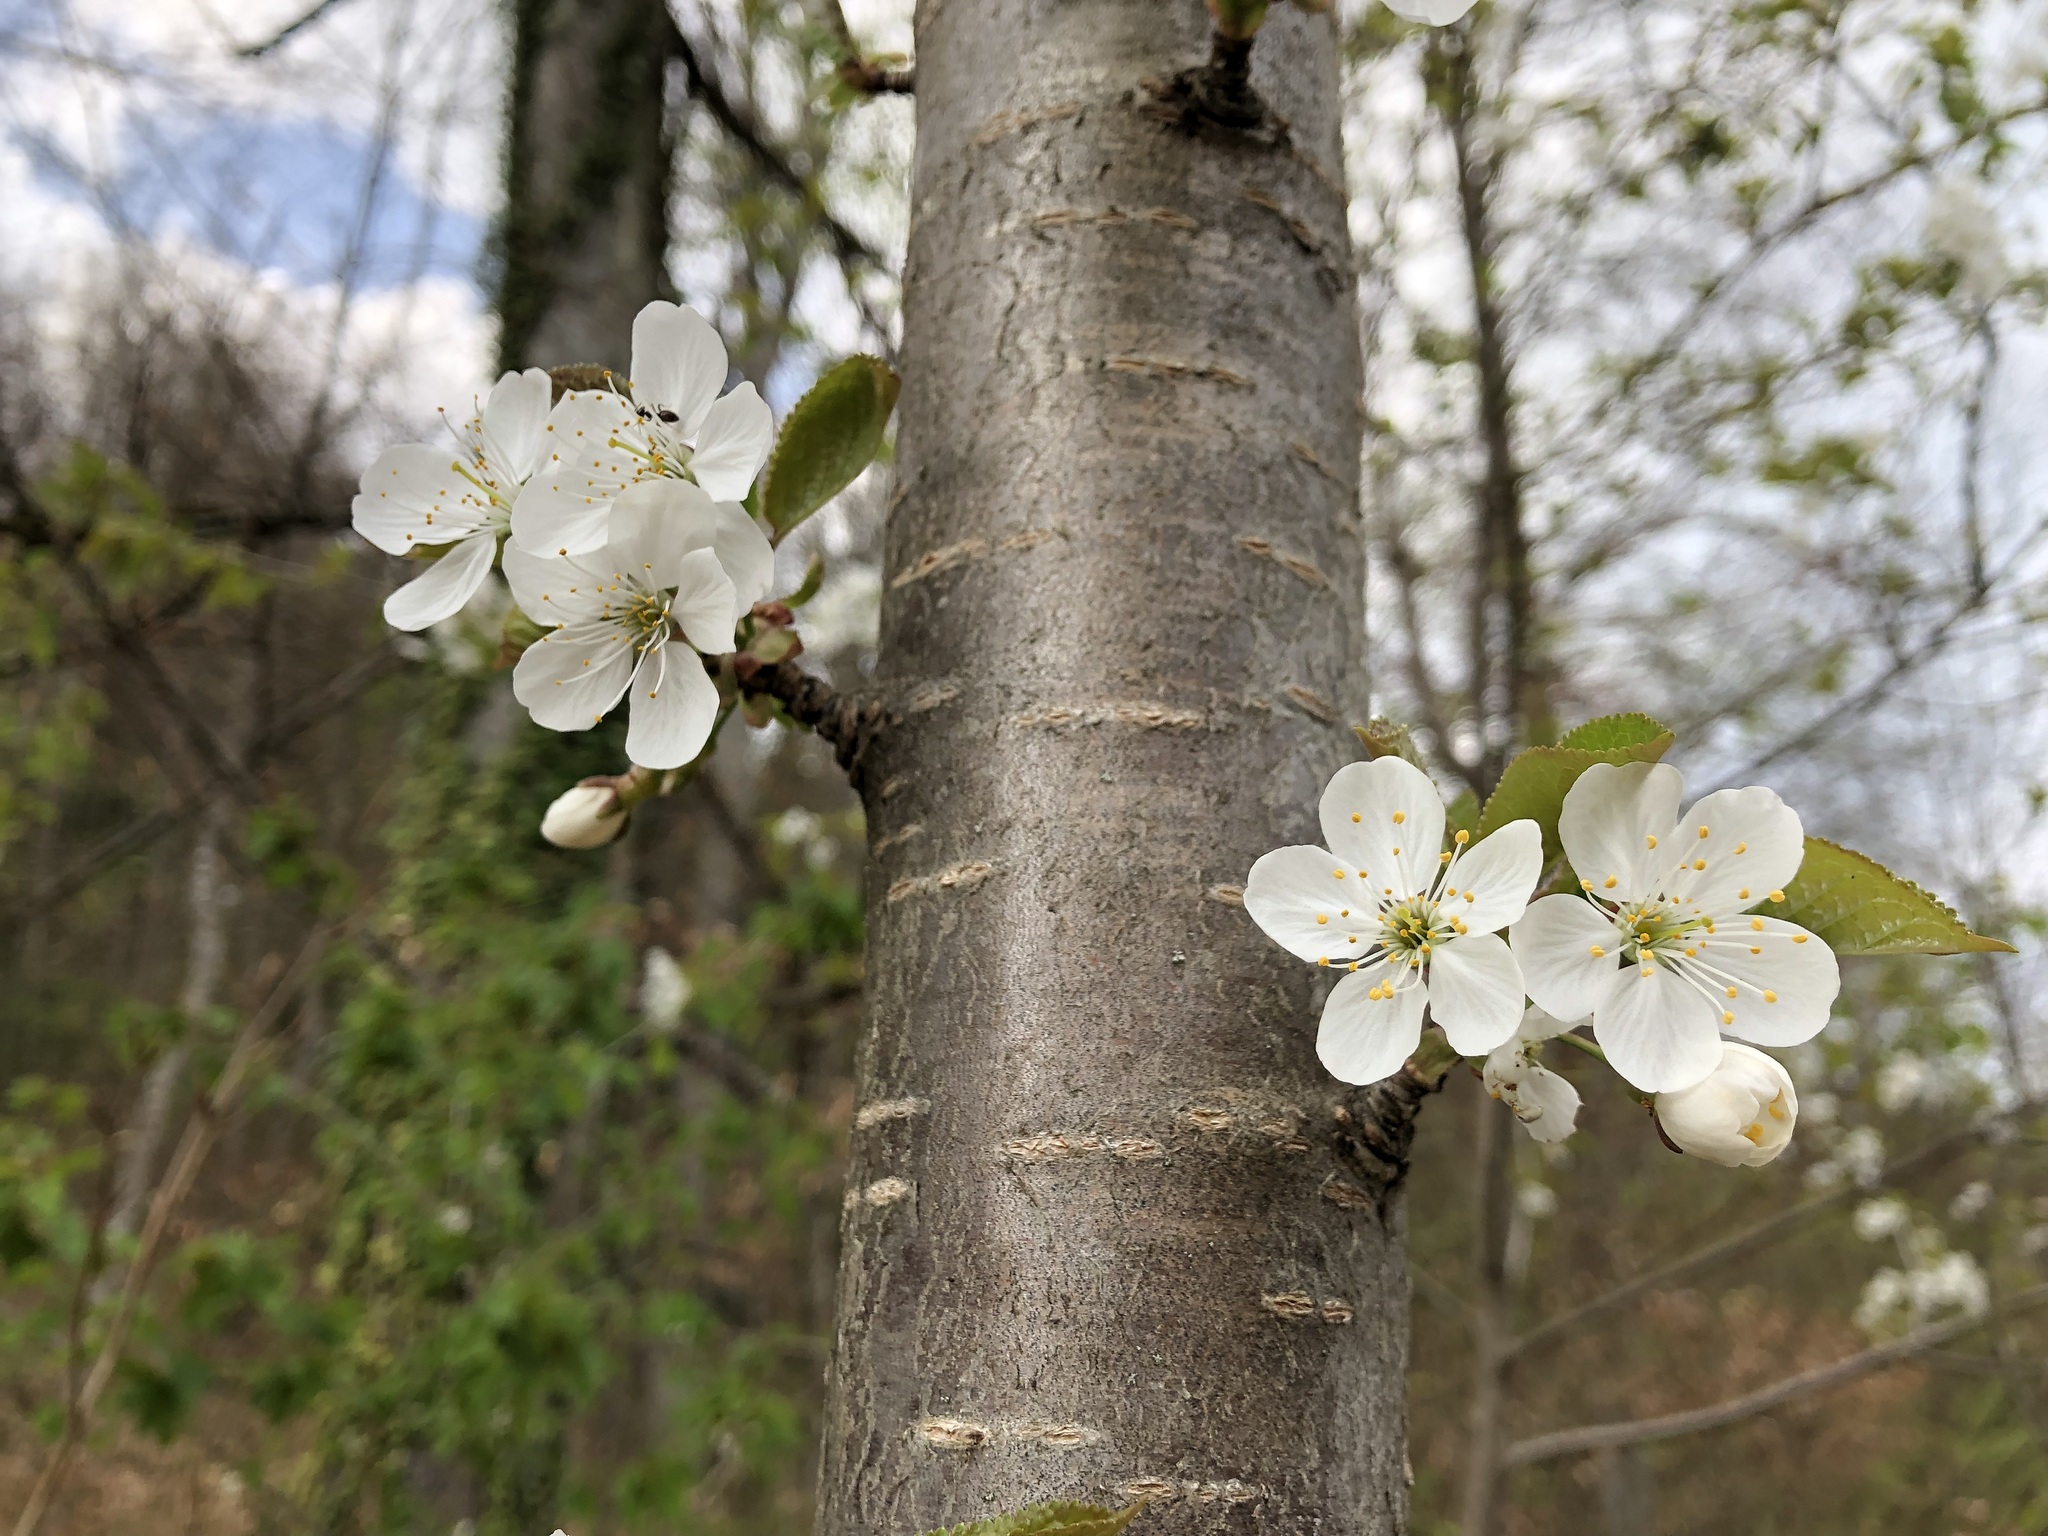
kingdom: Plantae
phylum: Tracheophyta
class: Magnoliopsida
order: Rosales
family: Rosaceae
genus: Prunus
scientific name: Prunus avium
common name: Sweet cherry
